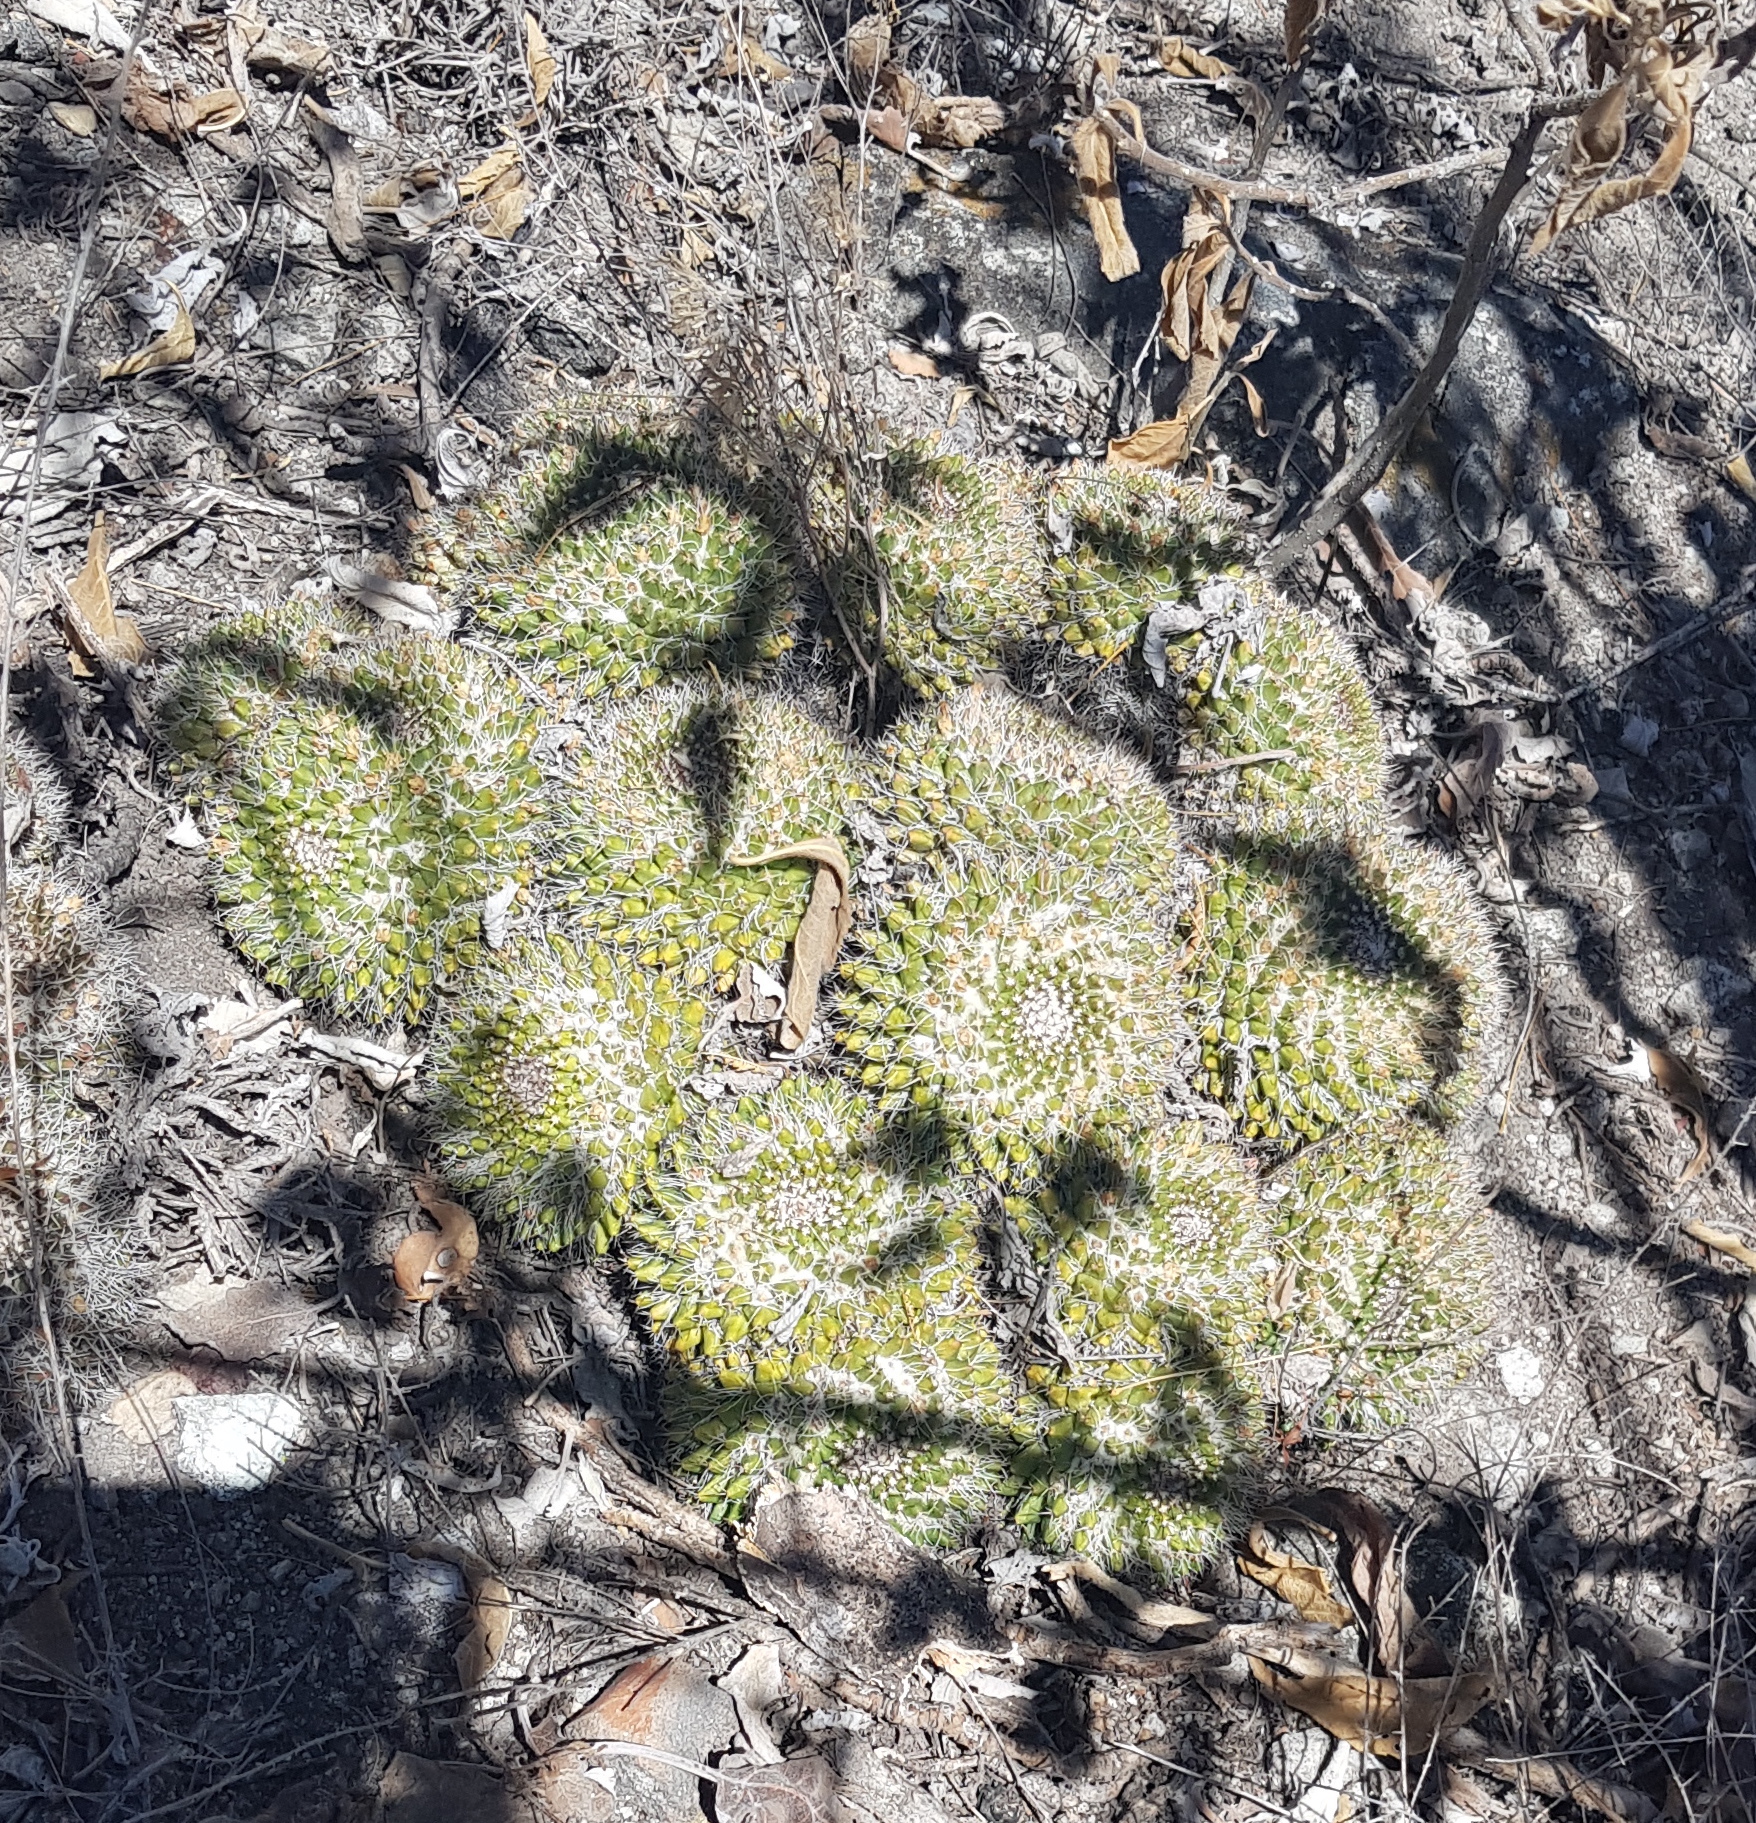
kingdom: Plantae
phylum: Tracheophyta
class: Magnoliopsida
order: Caryophyllales
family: Cactaceae
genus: Mammillaria
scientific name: Mammillaria karwinskiana
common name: Royal cross
